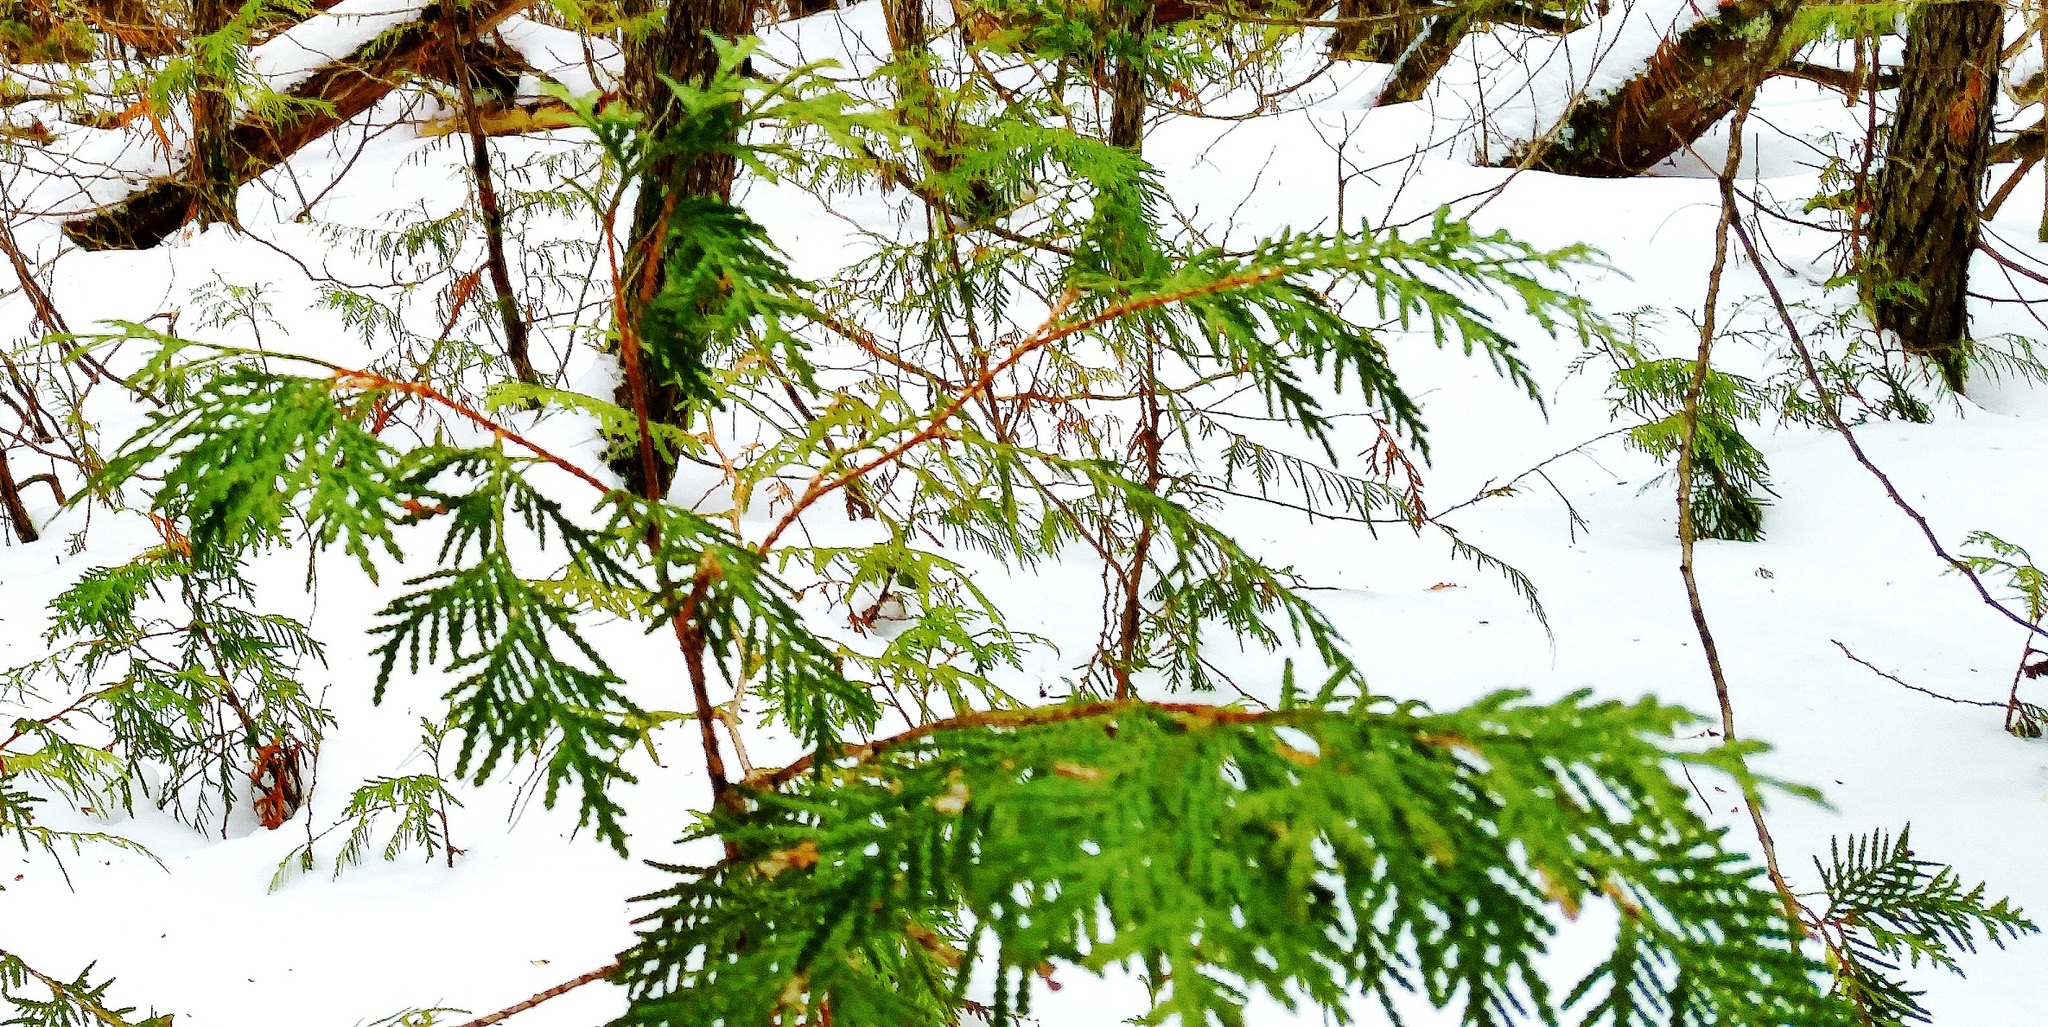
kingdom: Plantae
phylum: Tracheophyta
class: Pinopsida
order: Pinales
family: Cupressaceae
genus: Thuja
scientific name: Thuja occidentalis
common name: Northern white-cedar
